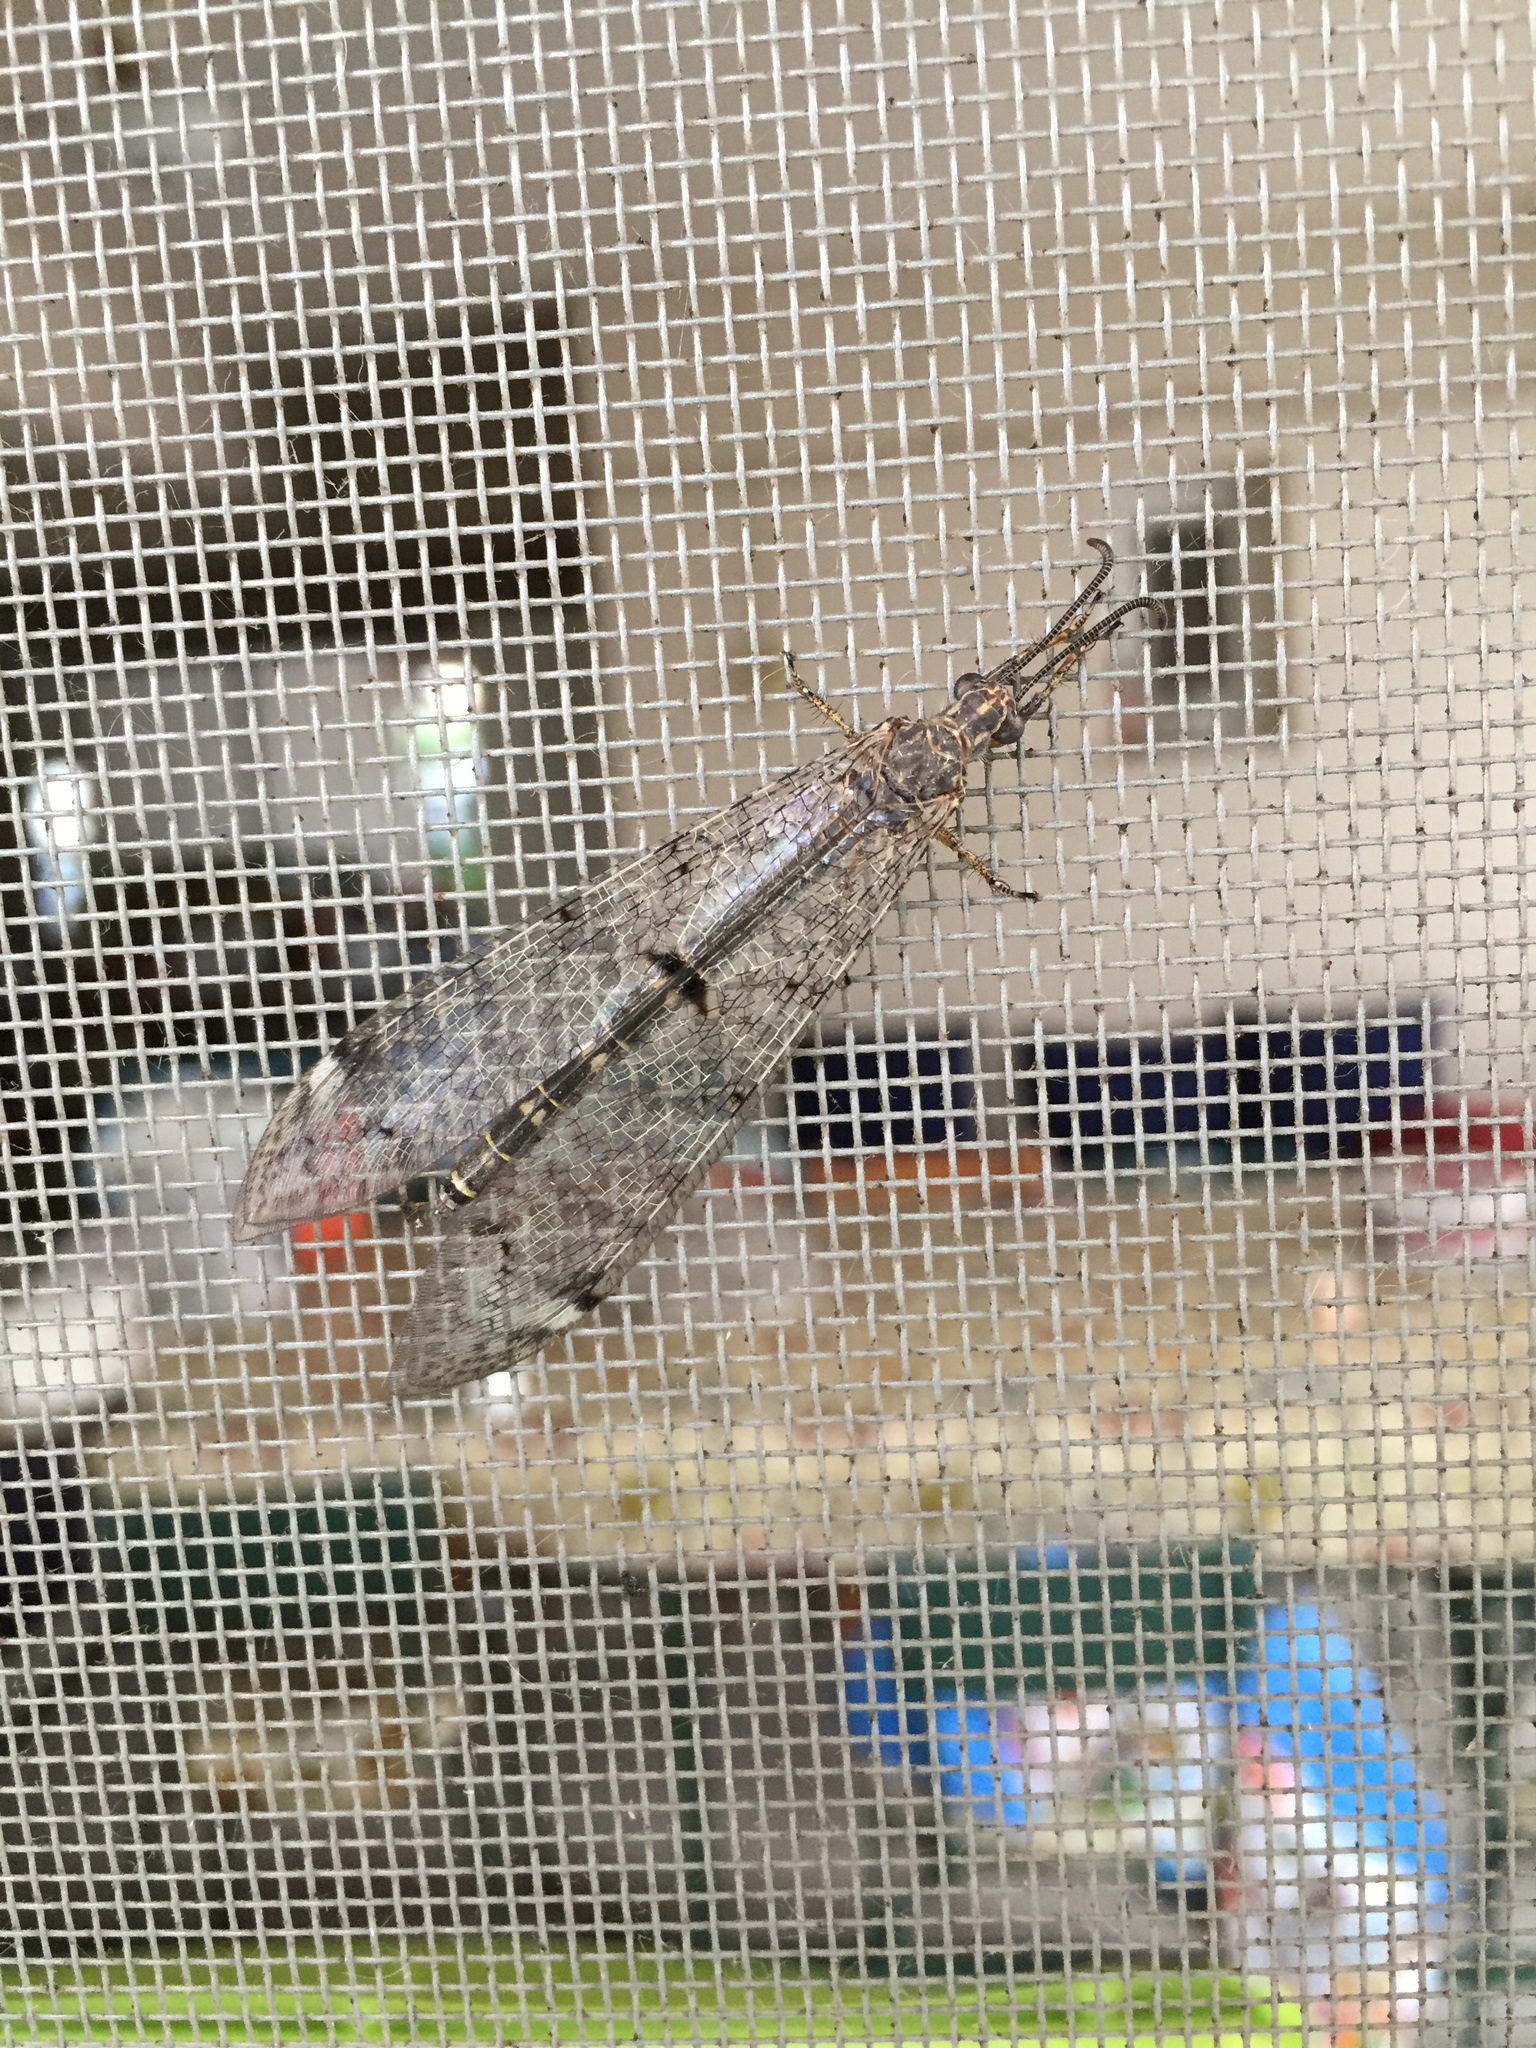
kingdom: Animalia
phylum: Arthropoda
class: Insecta
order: Neuroptera
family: Myrmeleontidae
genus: Distoleon
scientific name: Distoleon tetragrammicus
